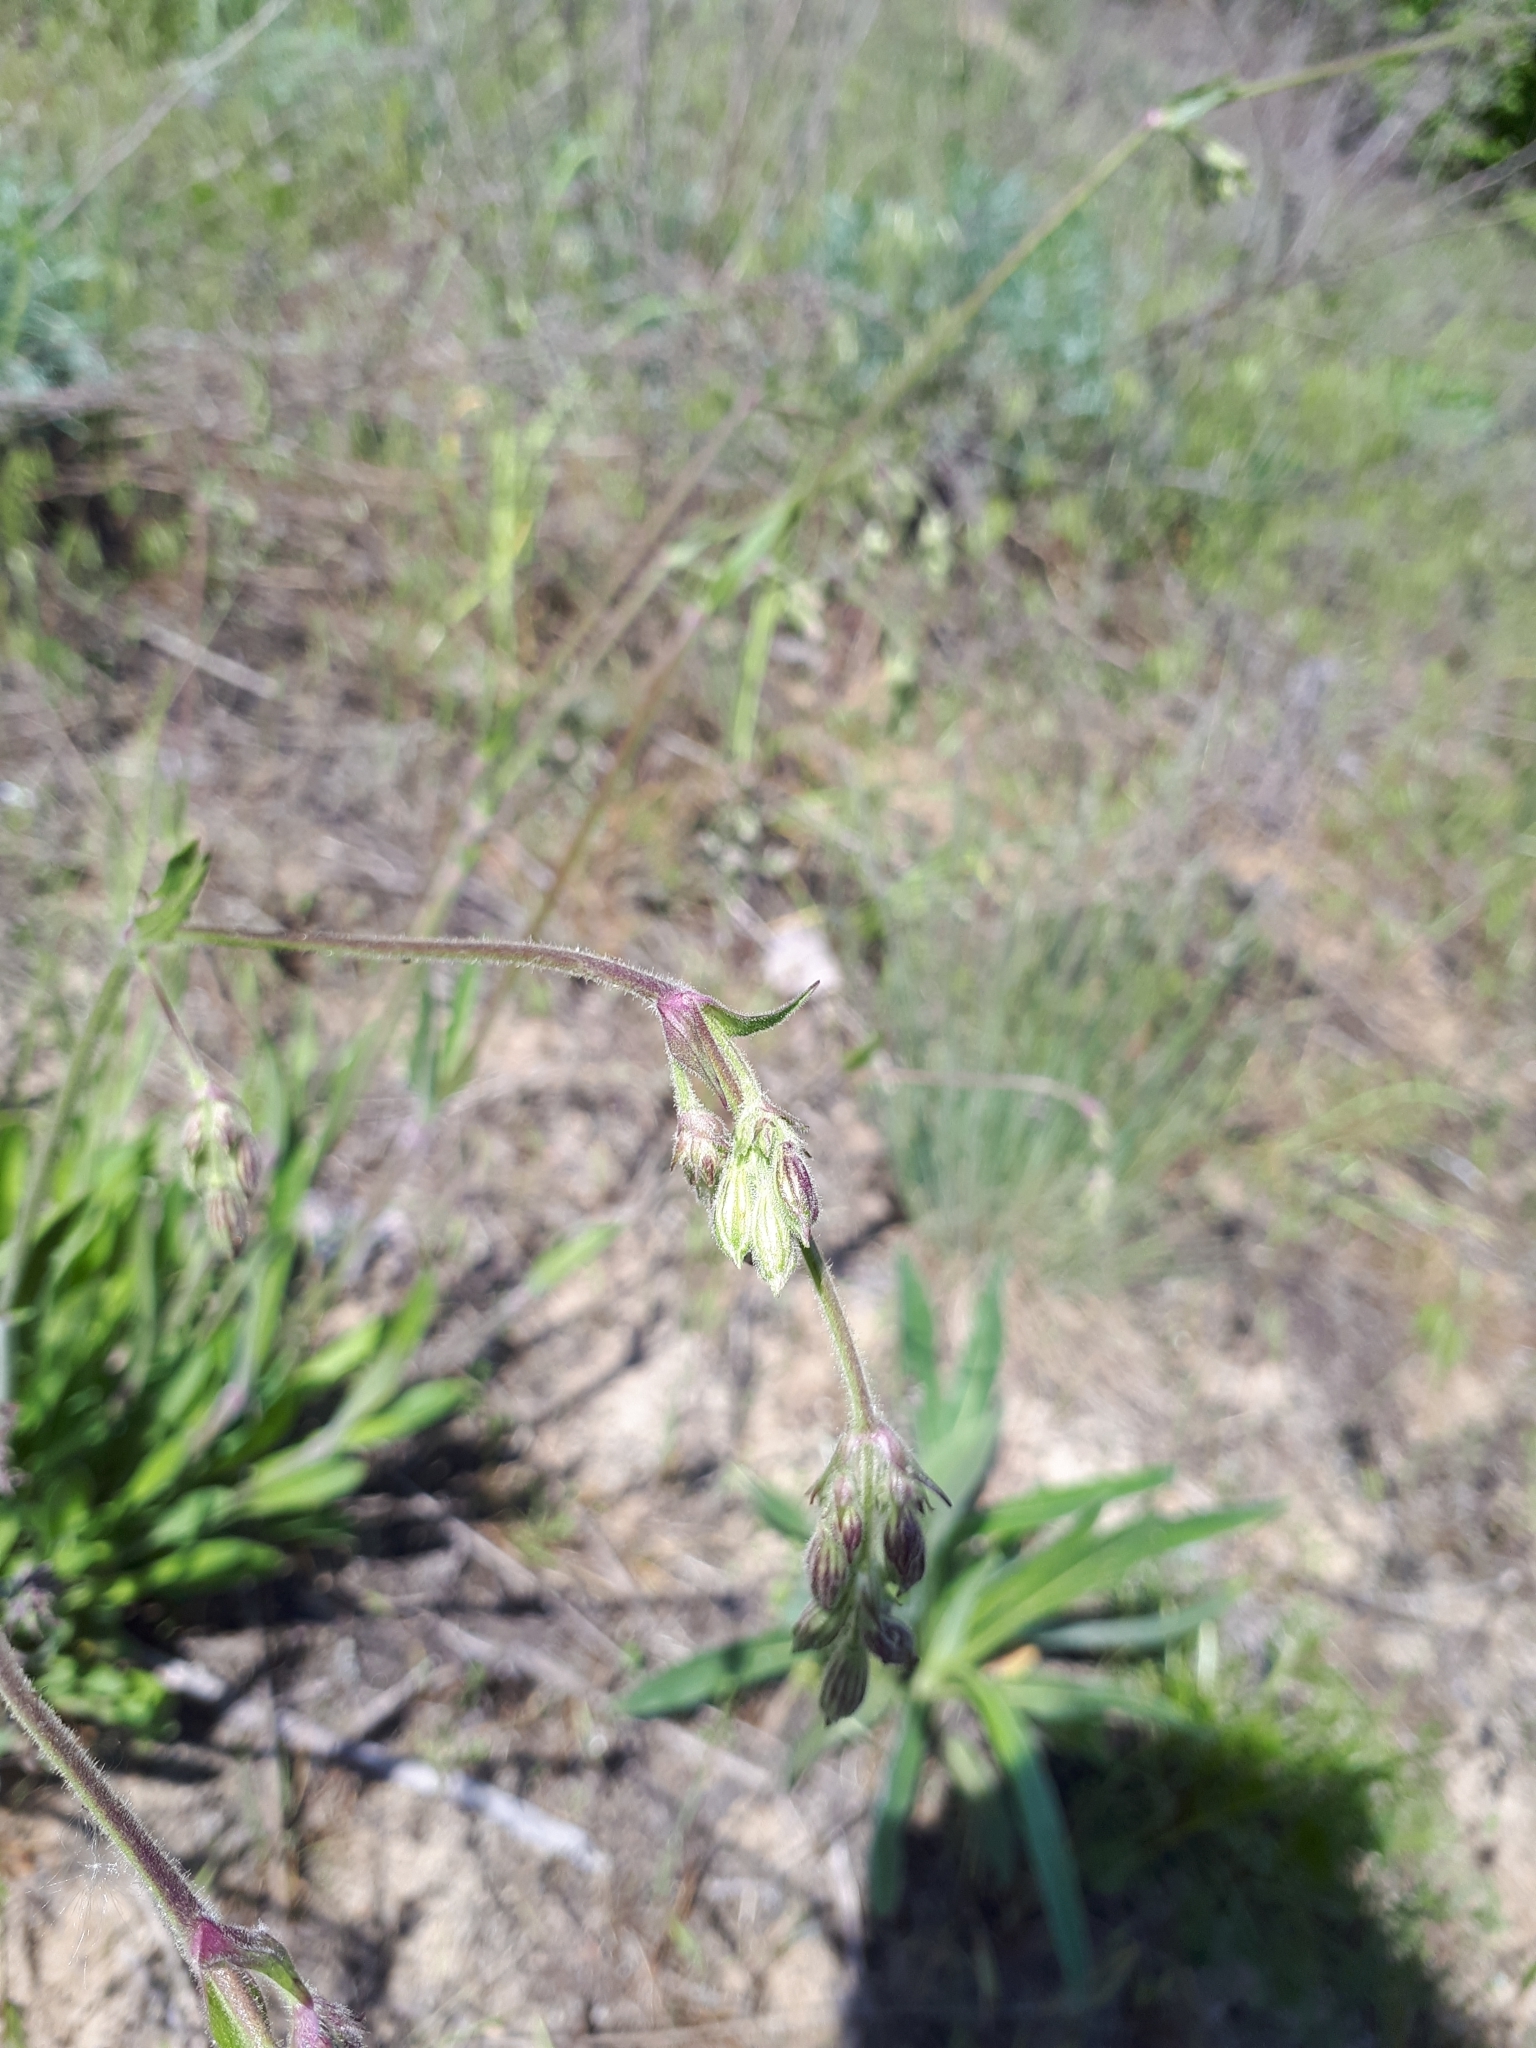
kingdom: Plantae
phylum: Tracheophyta
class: Magnoliopsida
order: Caryophyllales
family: Caryophyllaceae
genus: Silene
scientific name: Silene nutans
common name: Nottingham catchfly
